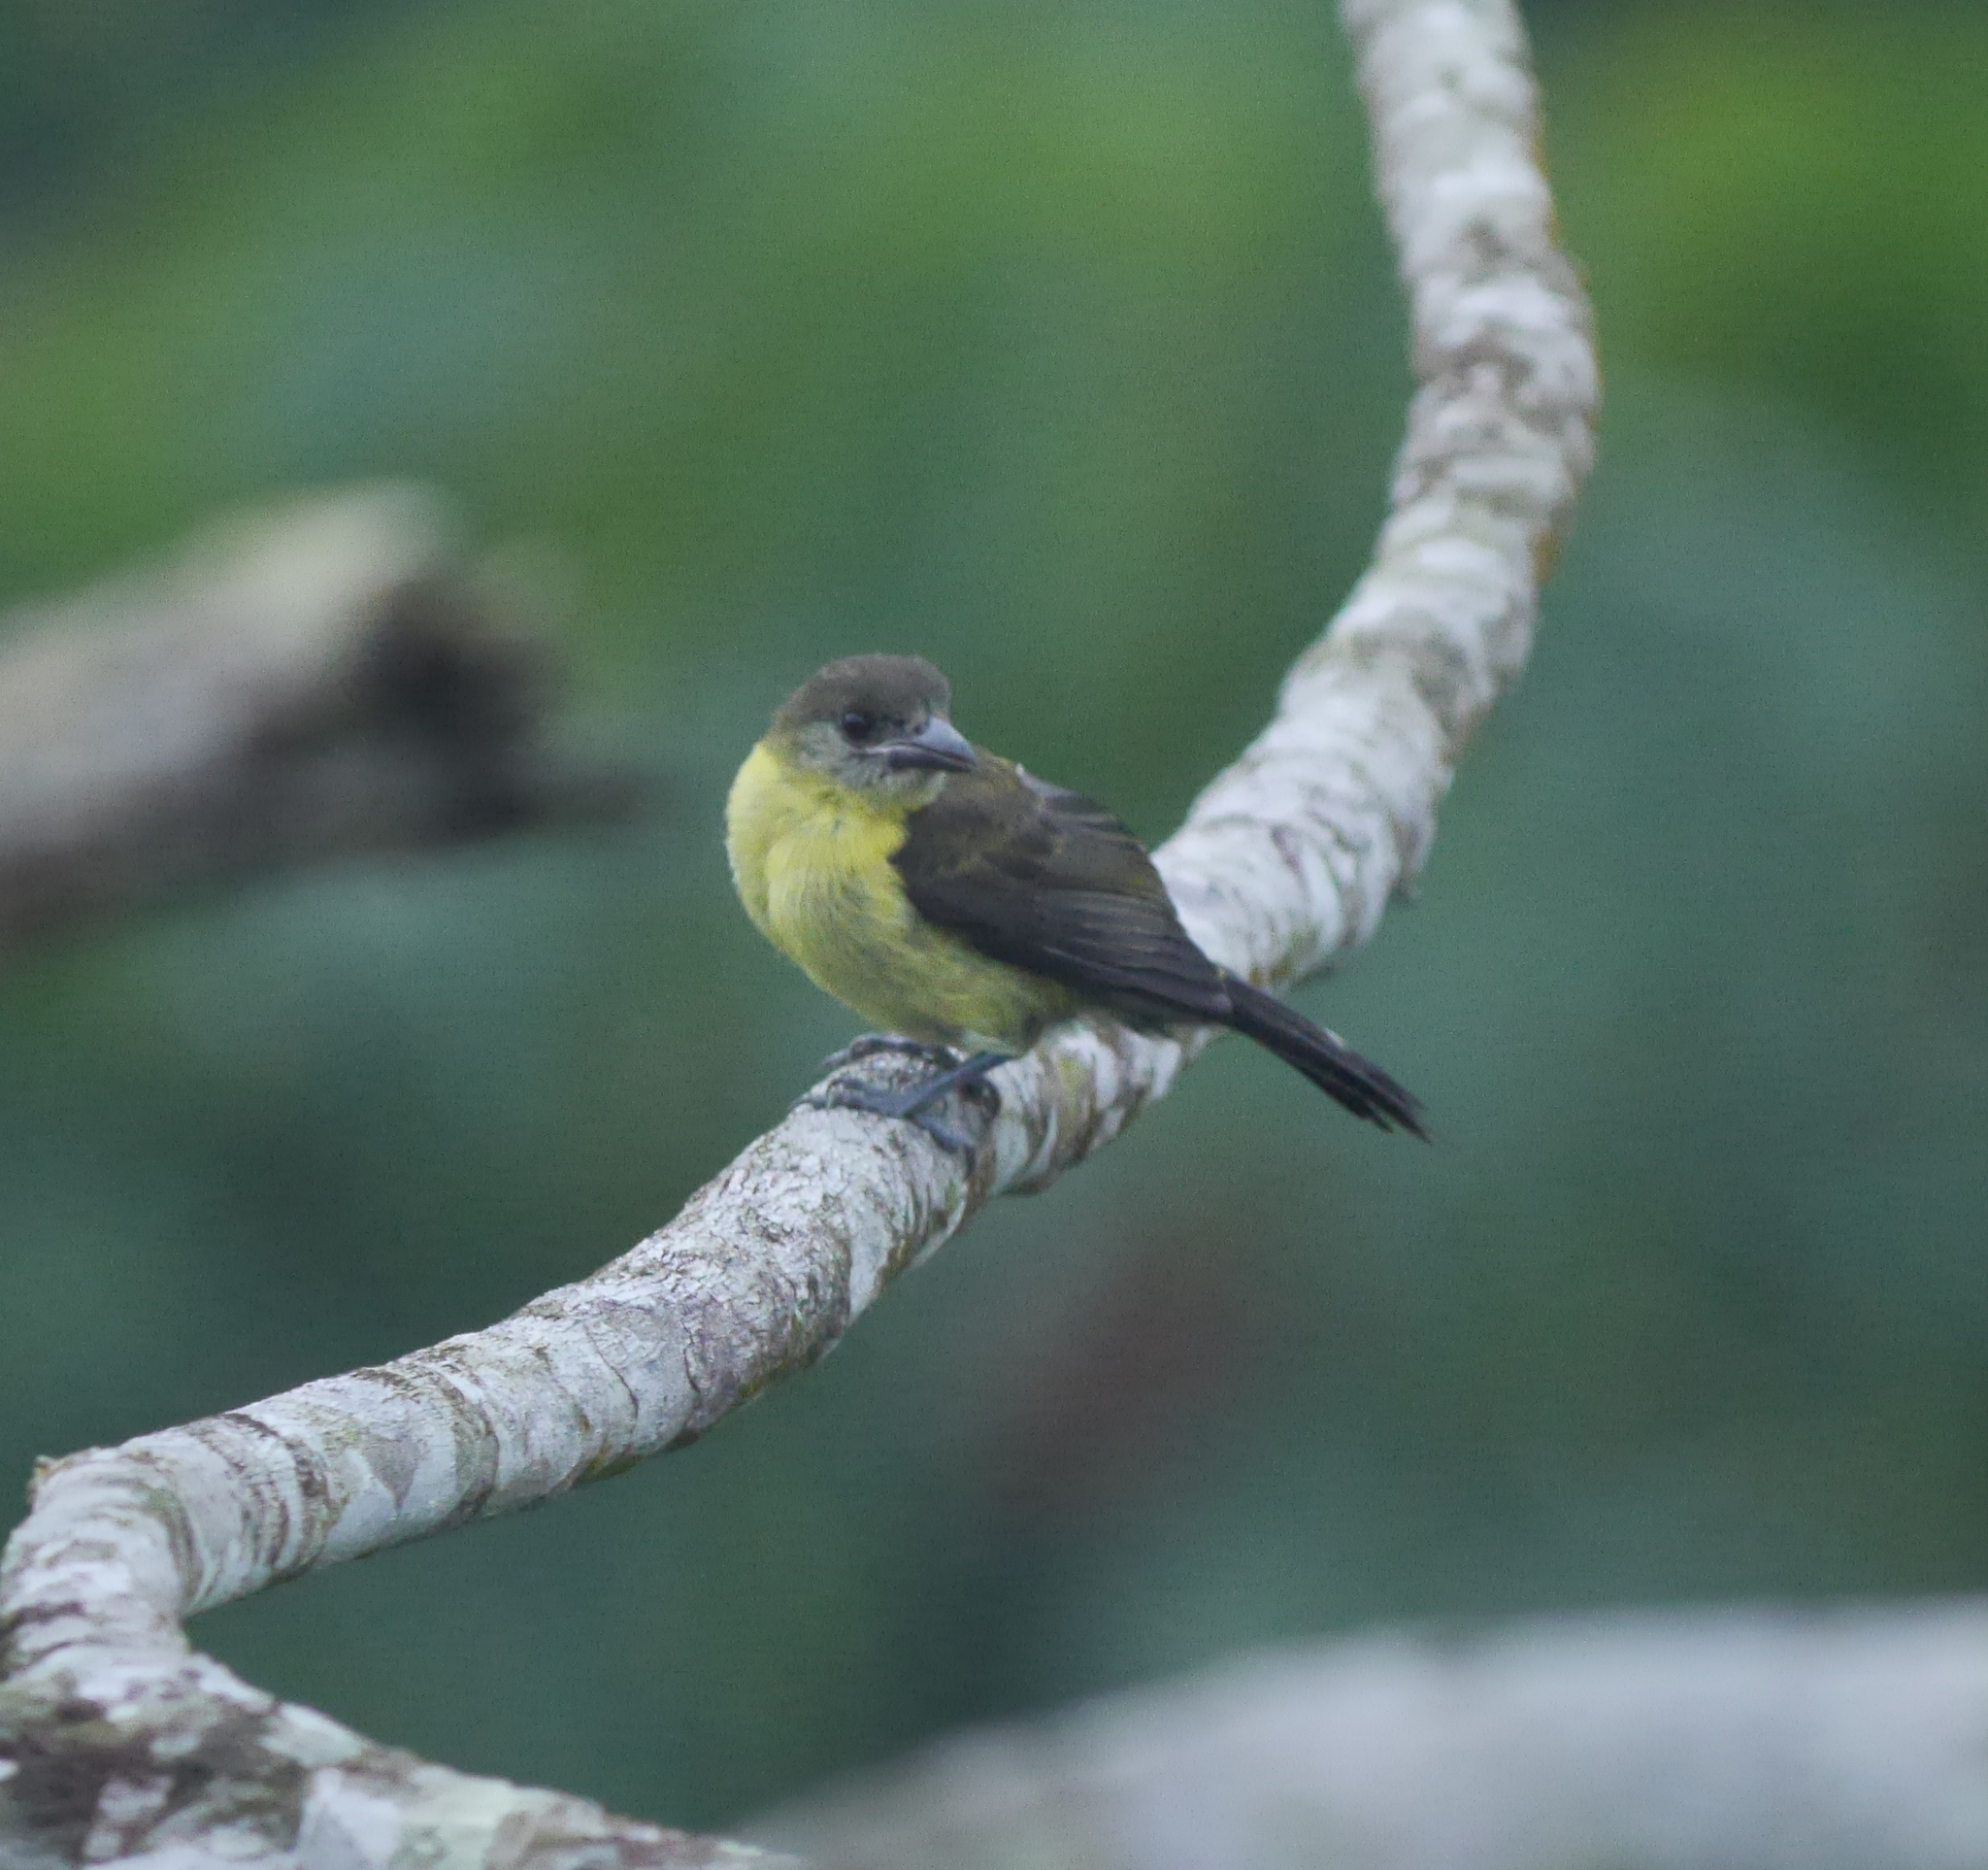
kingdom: Animalia
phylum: Chordata
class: Aves
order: Passeriformes
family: Thraupidae
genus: Ramphocelus
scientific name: Ramphocelus flammigerus
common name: Flame-rumped tanager
